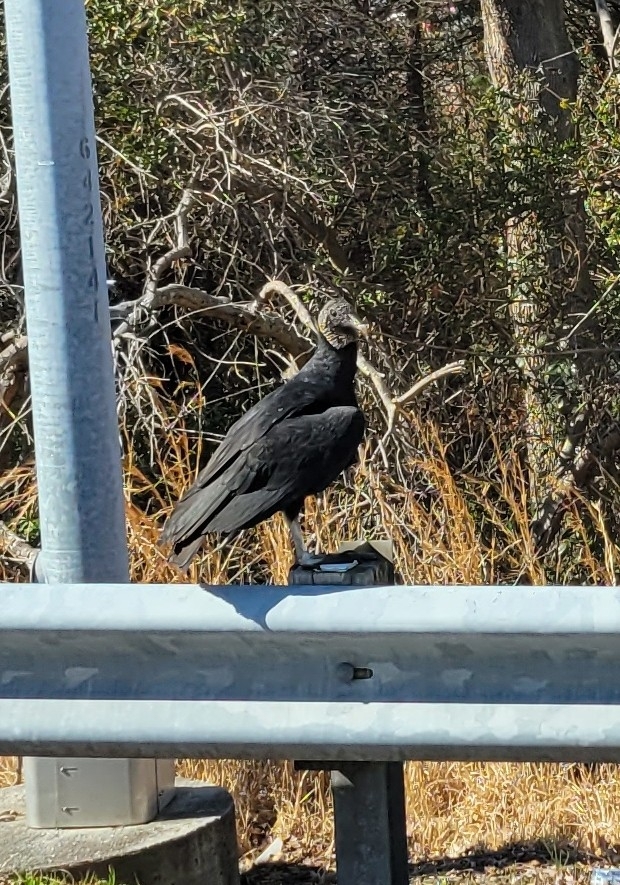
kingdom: Animalia
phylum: Chordata
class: Aves
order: Accipitriformes
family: Cathartidae
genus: Coragyps
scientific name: Coragyps atratus
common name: Black vulture
